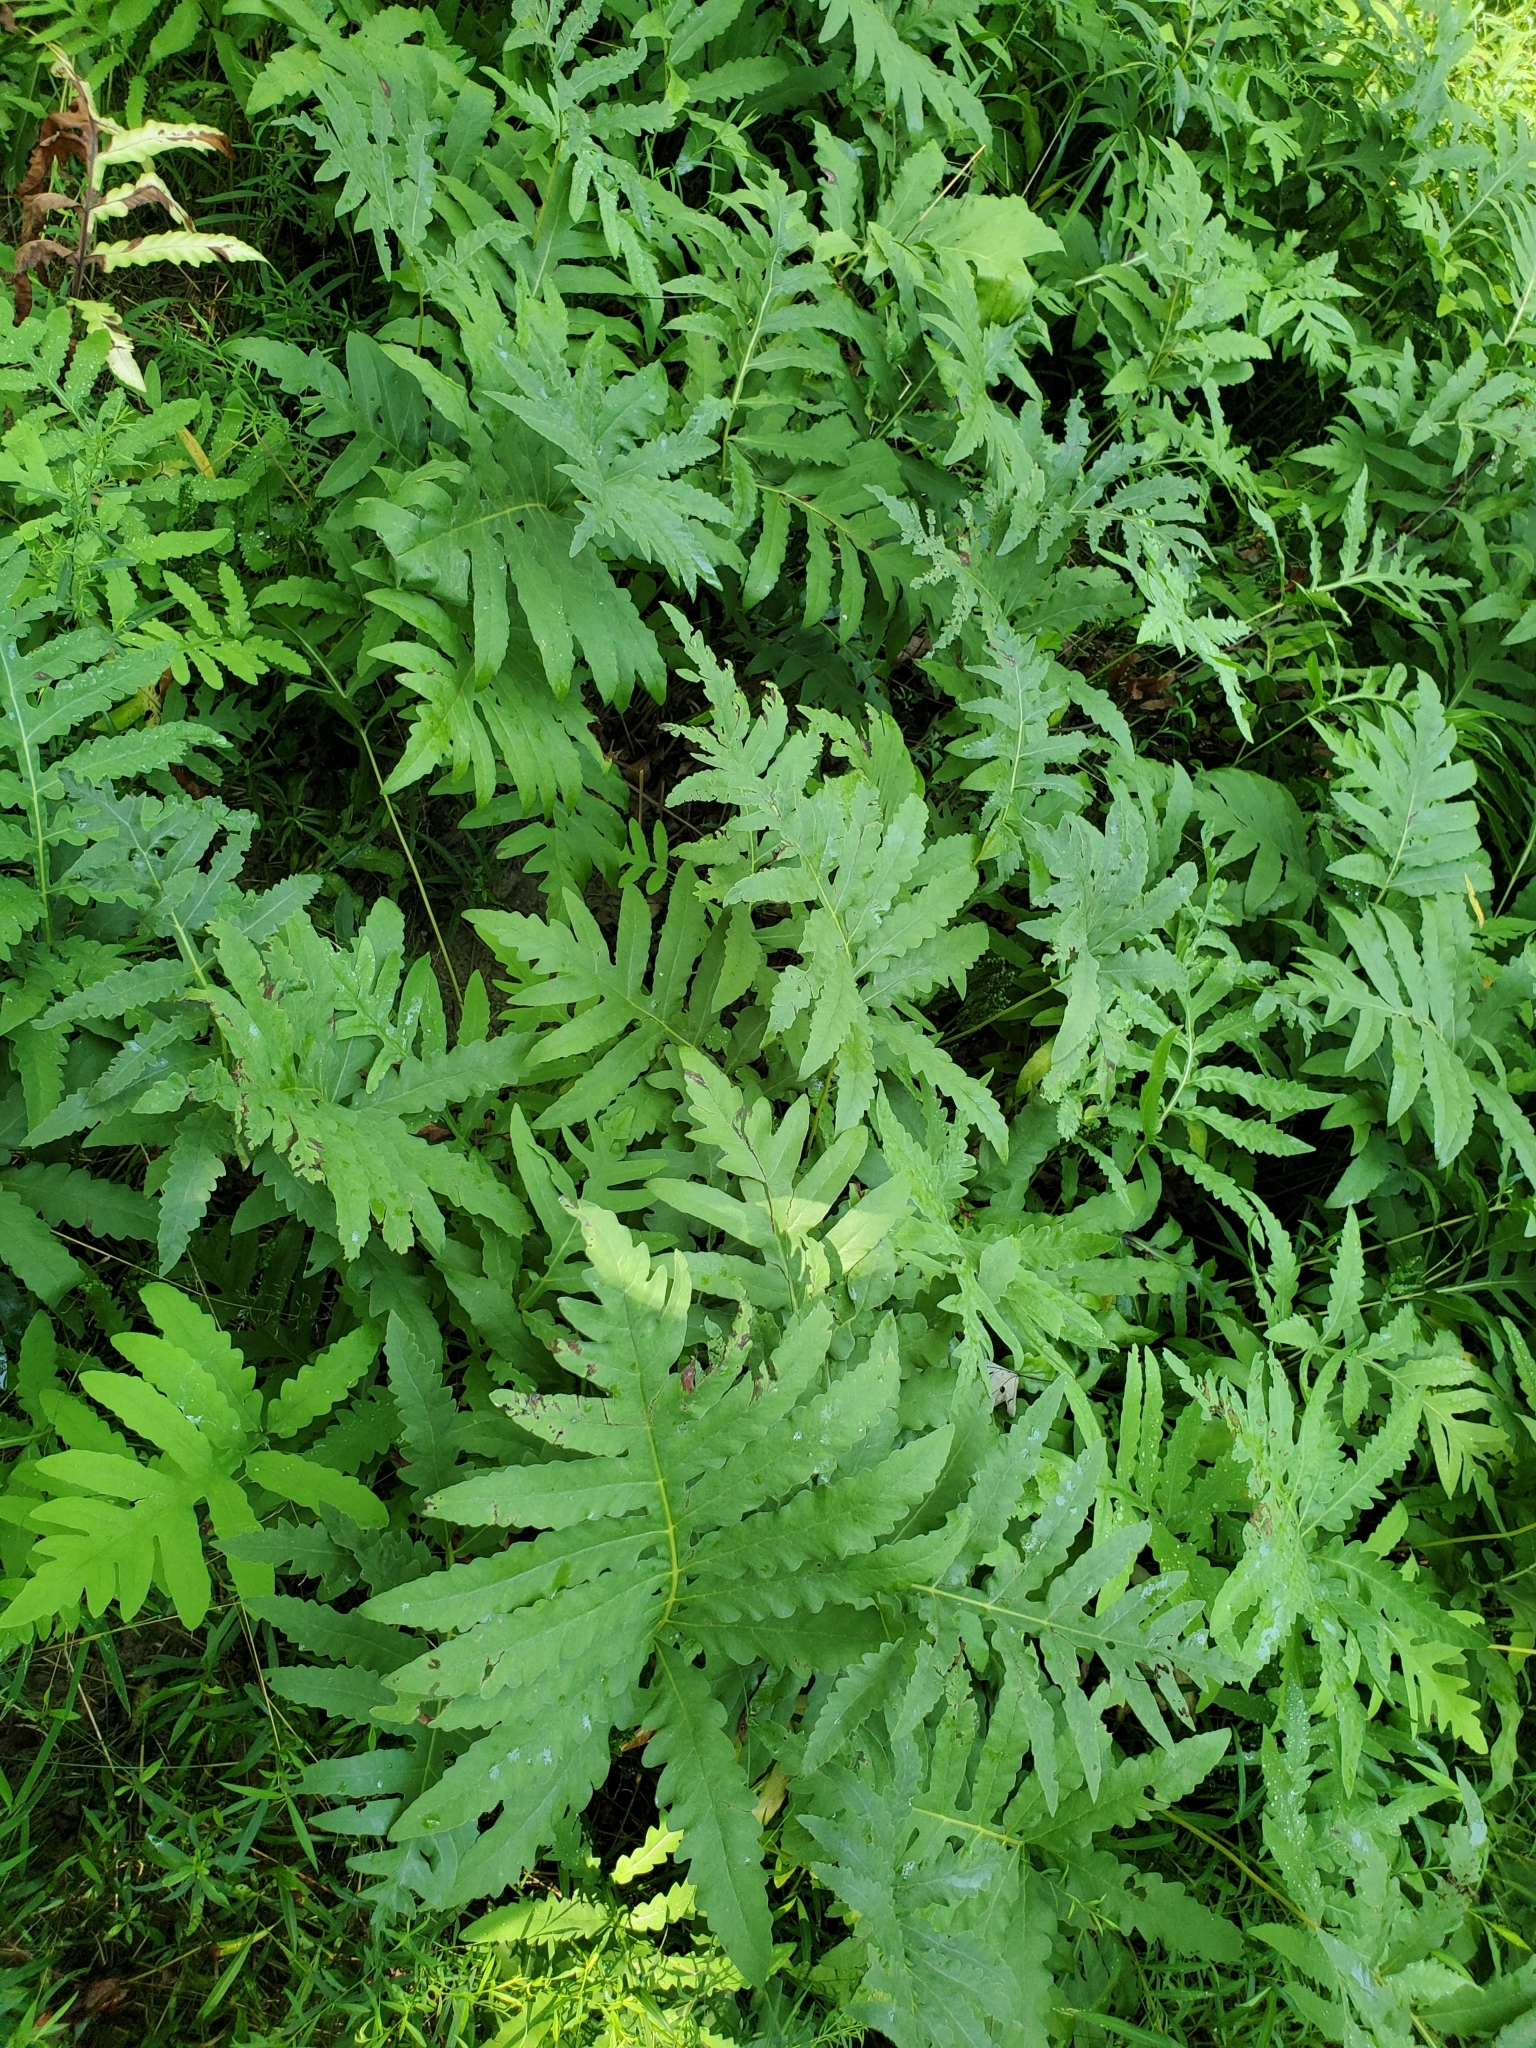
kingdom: Plantae
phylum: Tracheophyta
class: Polypodiopsida
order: Polypodiales
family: Onocleaceae
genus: Onoclea
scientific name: Onoclea sensibilis
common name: Sensitive fern
